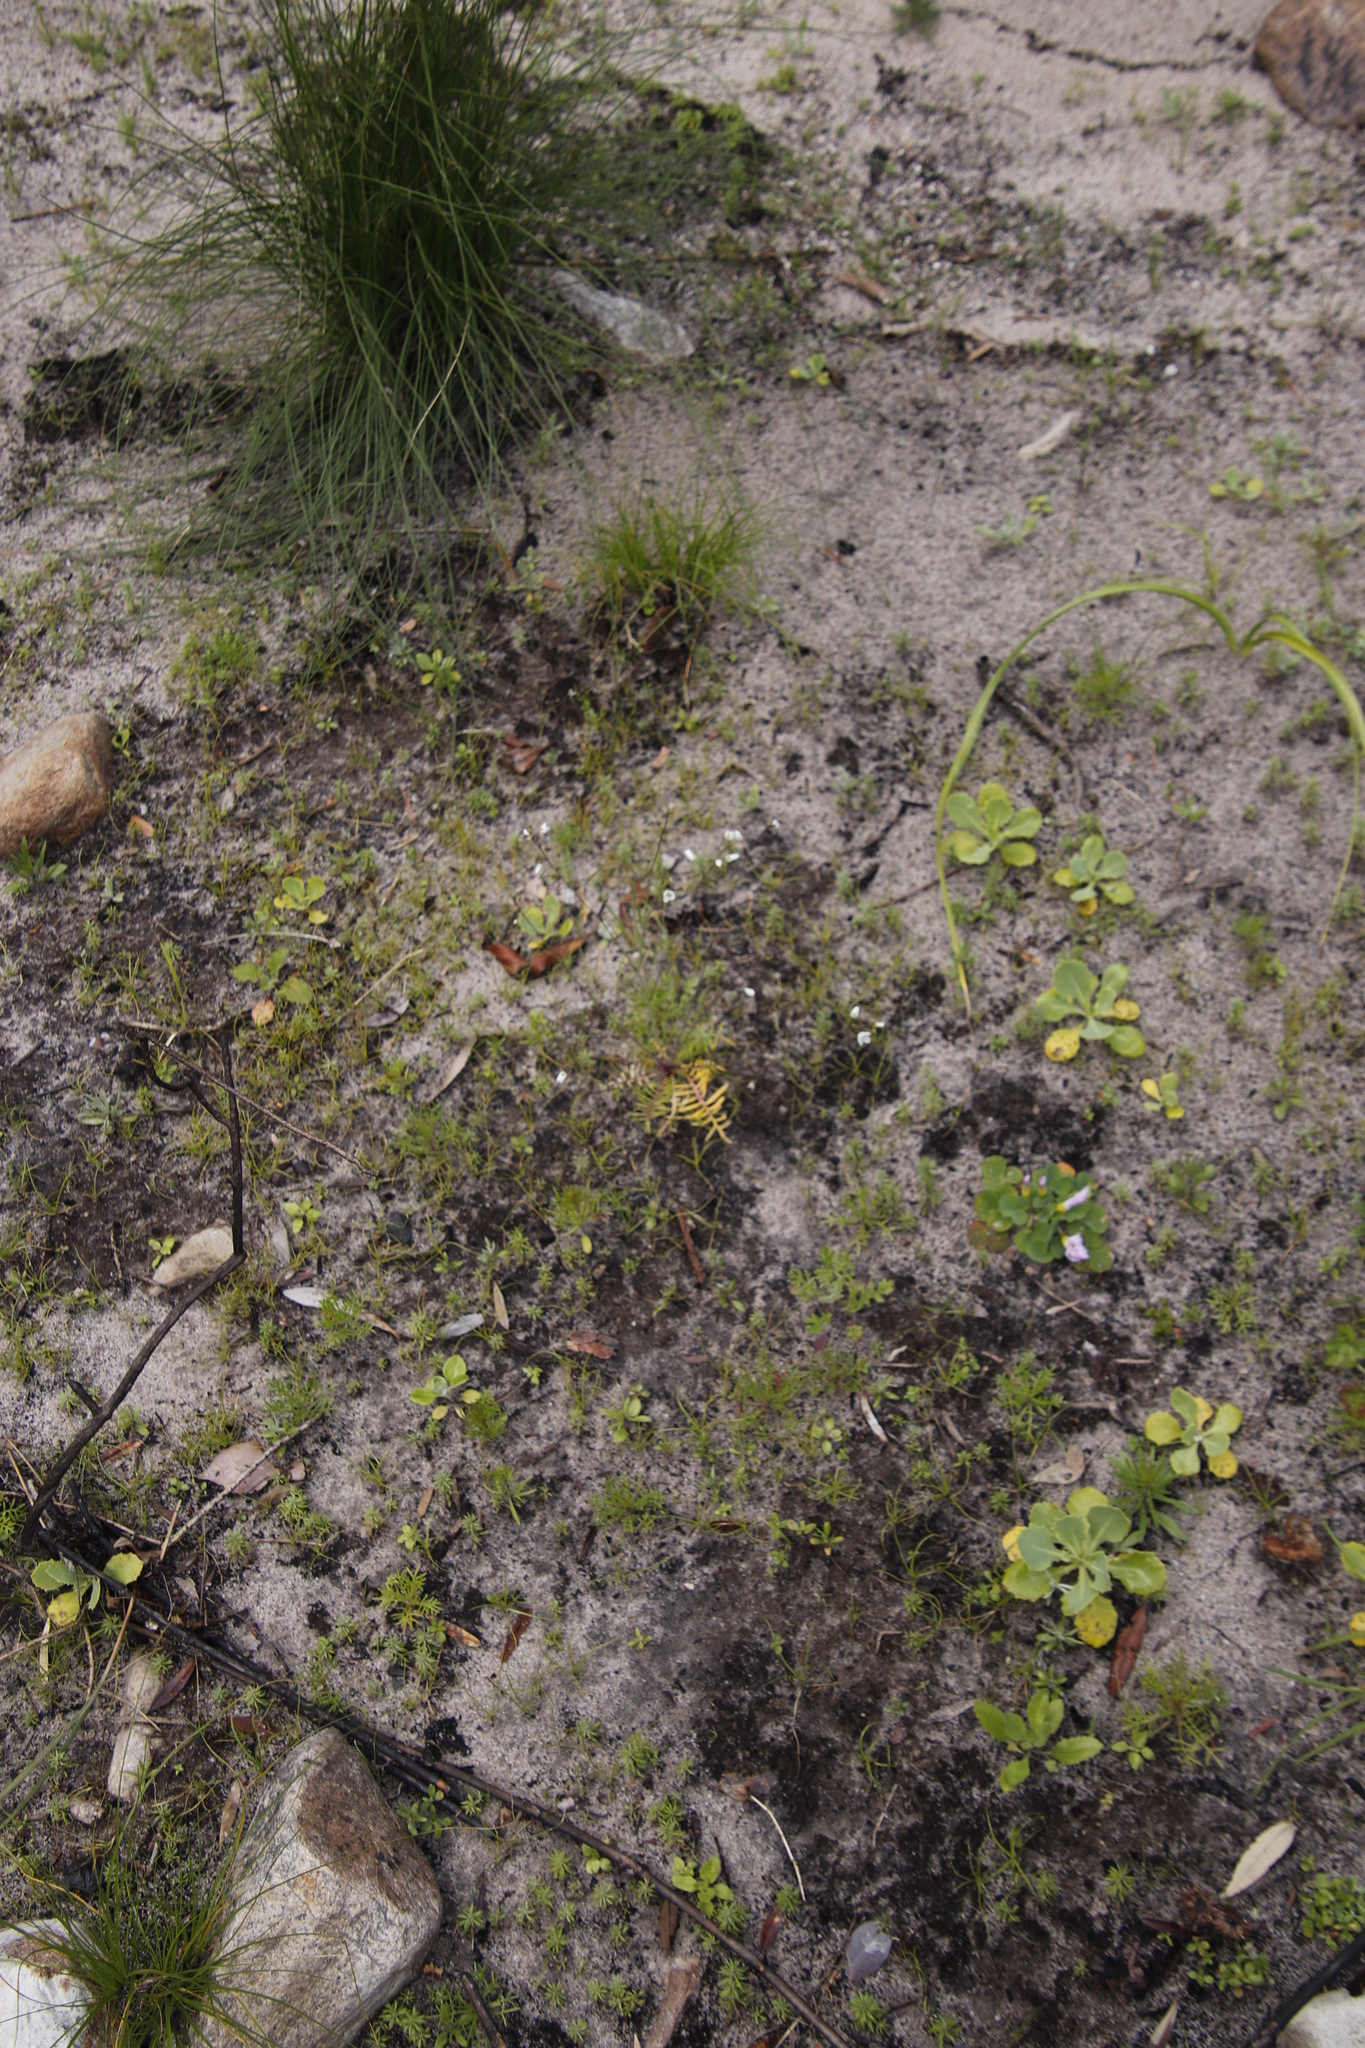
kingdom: Plantae
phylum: Tracheophyta
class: Magnoliopsida
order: Brassicales
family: Brassicaceae
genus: Heliophila
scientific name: Heliophila concatenata
